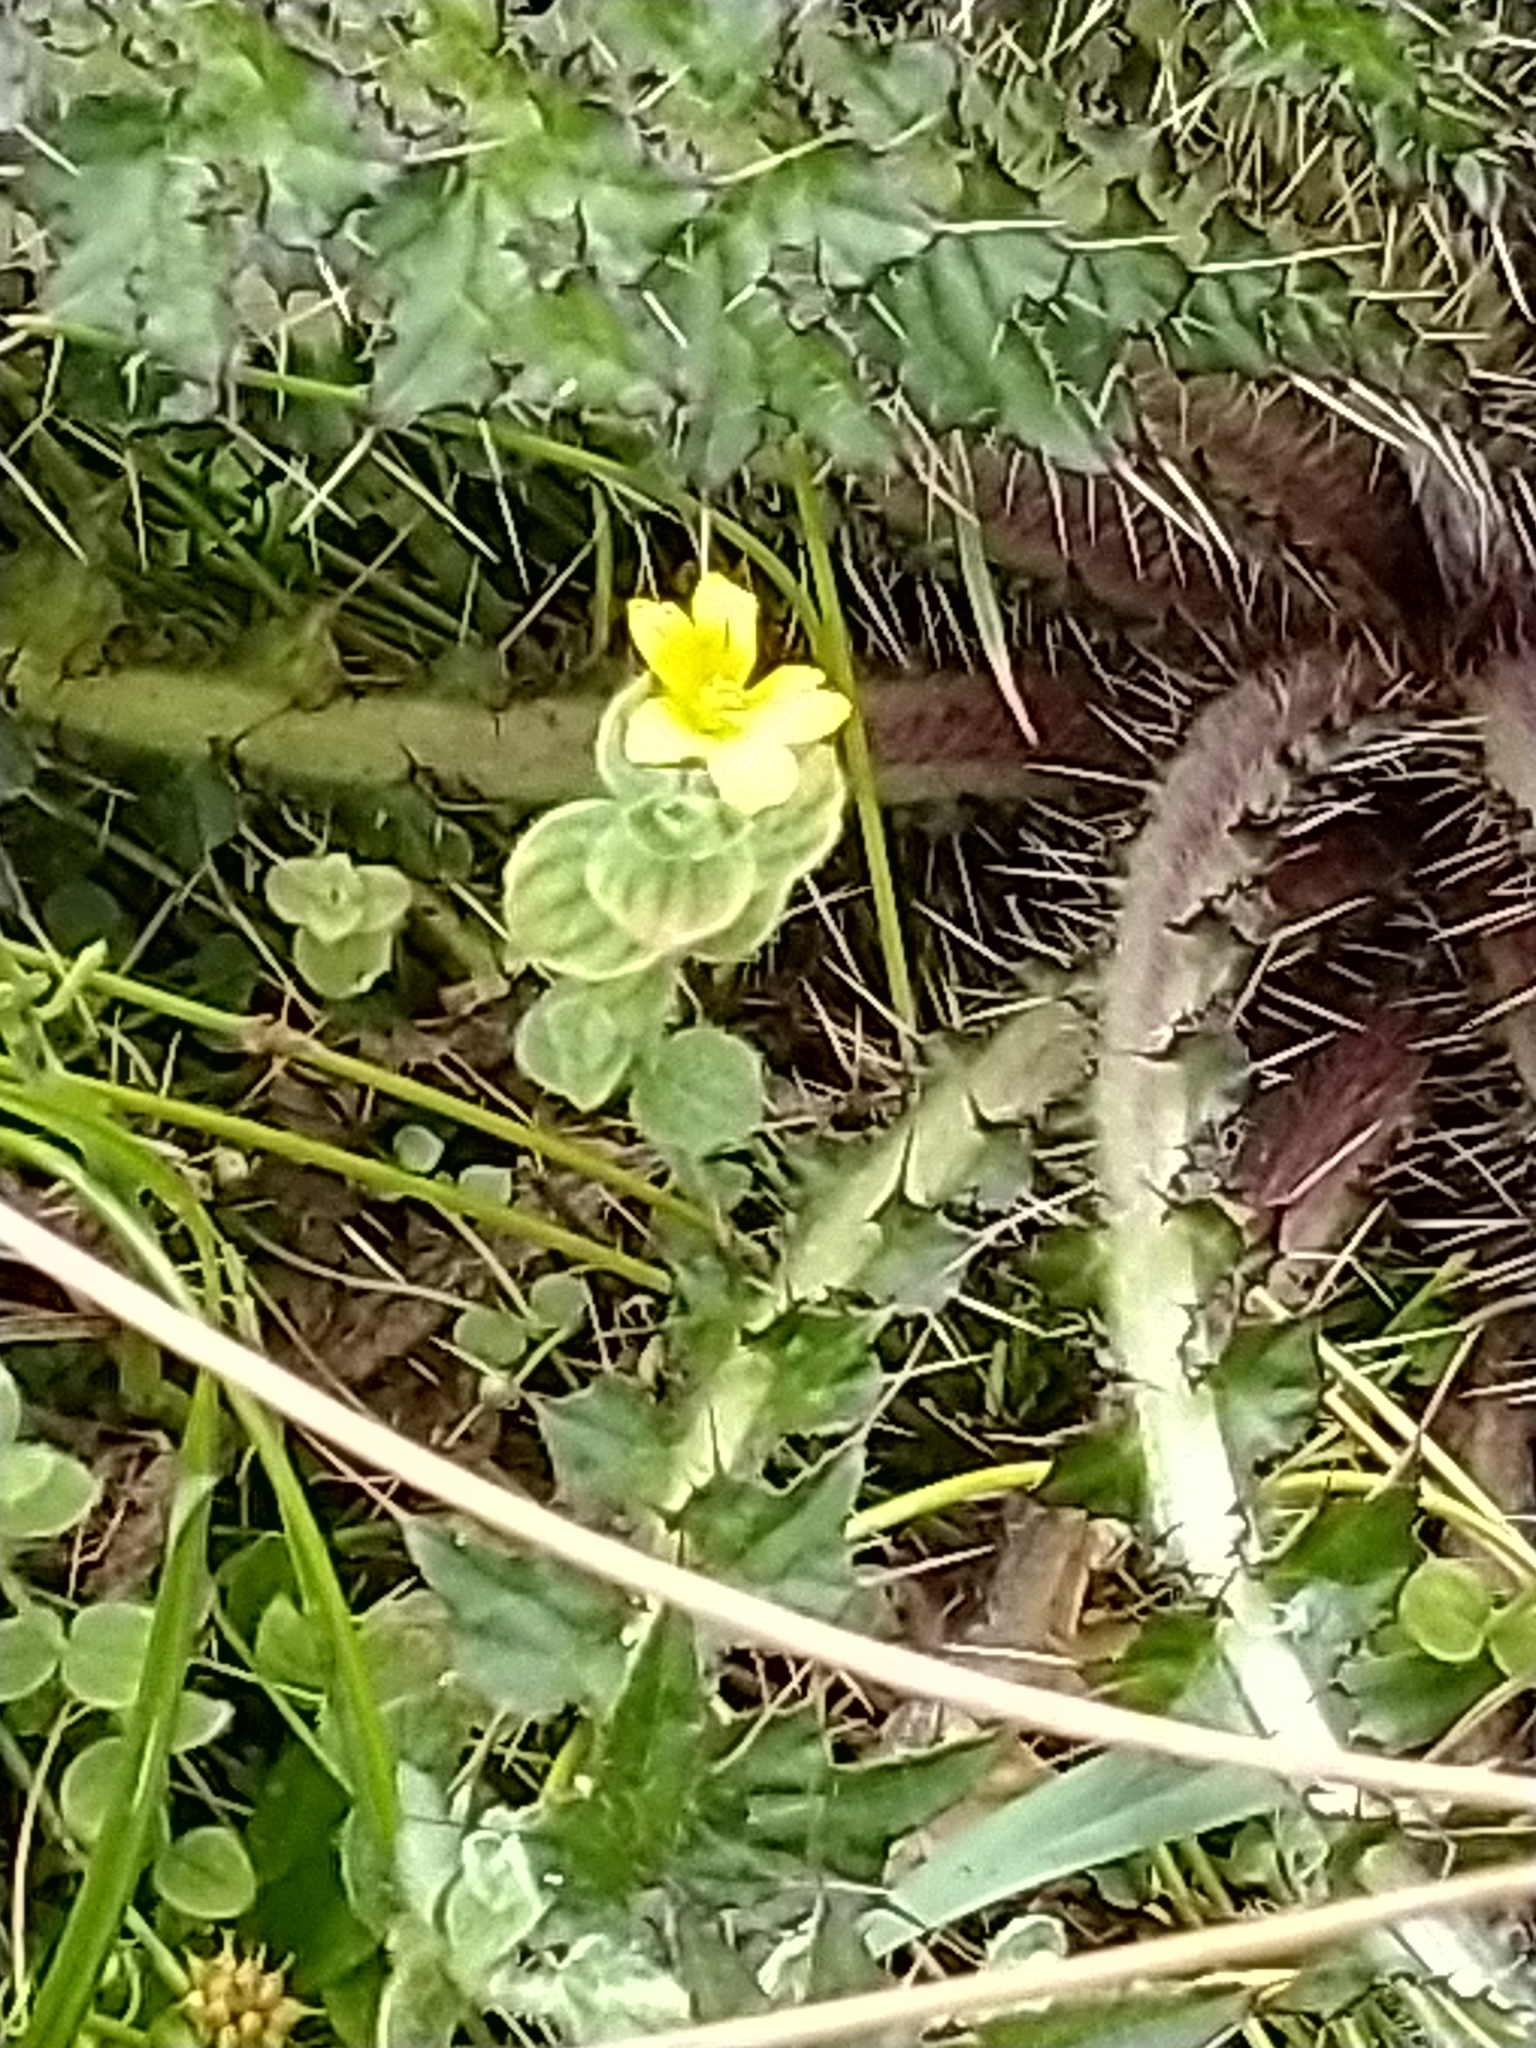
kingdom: Plantae
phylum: Tracheophyta
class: Magnoliopsida
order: Malpighiales
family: Hypericaceae
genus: Hypericum
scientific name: Hypericum elodes
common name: Marsh st. john's-wort
